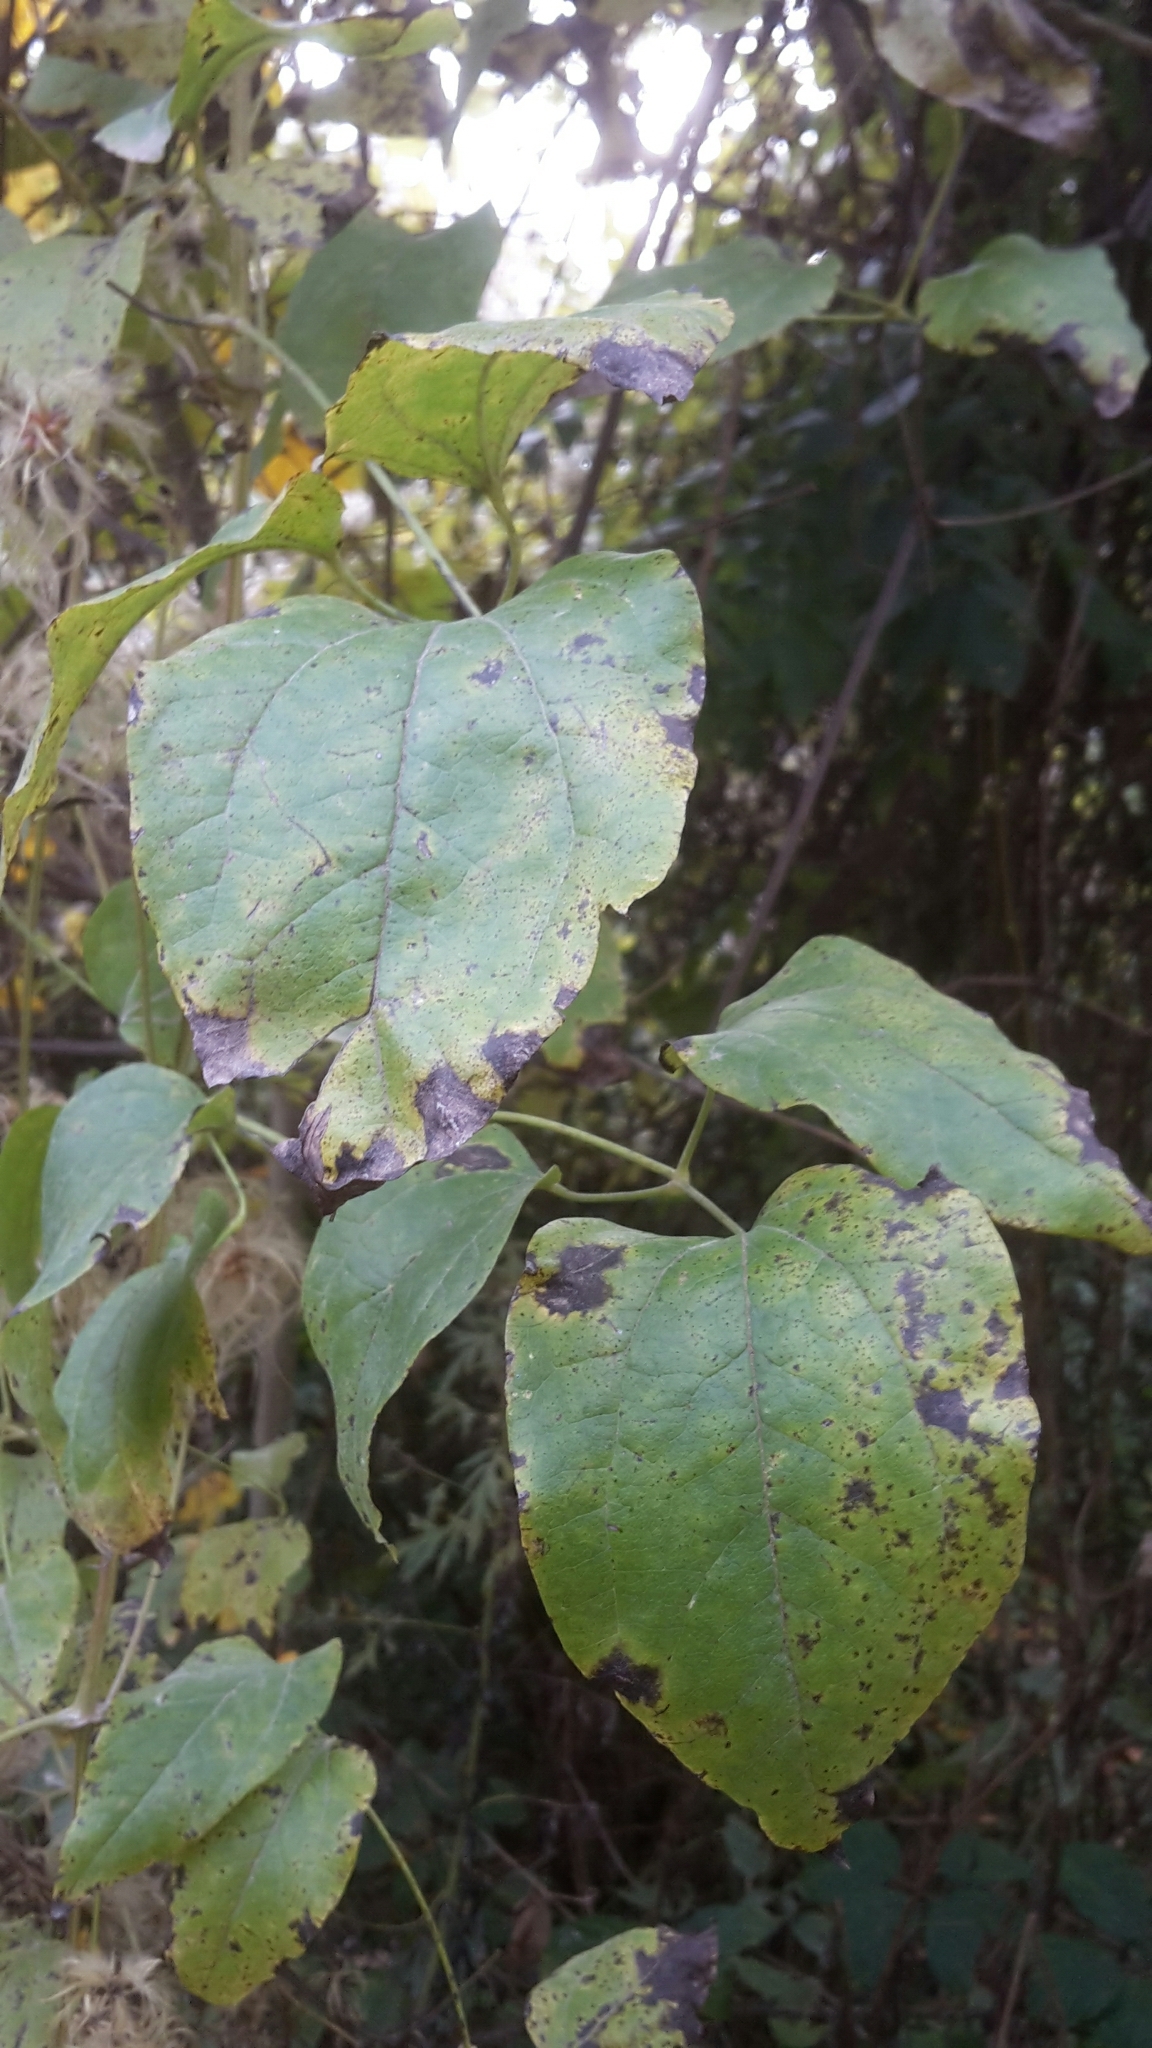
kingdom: Plantae
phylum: Tracheophyta
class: Magnoliopsida
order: Ranunculales
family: Ranunculaceae
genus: Clematis
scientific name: Clematis vitalba
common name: Evergreen clematis
